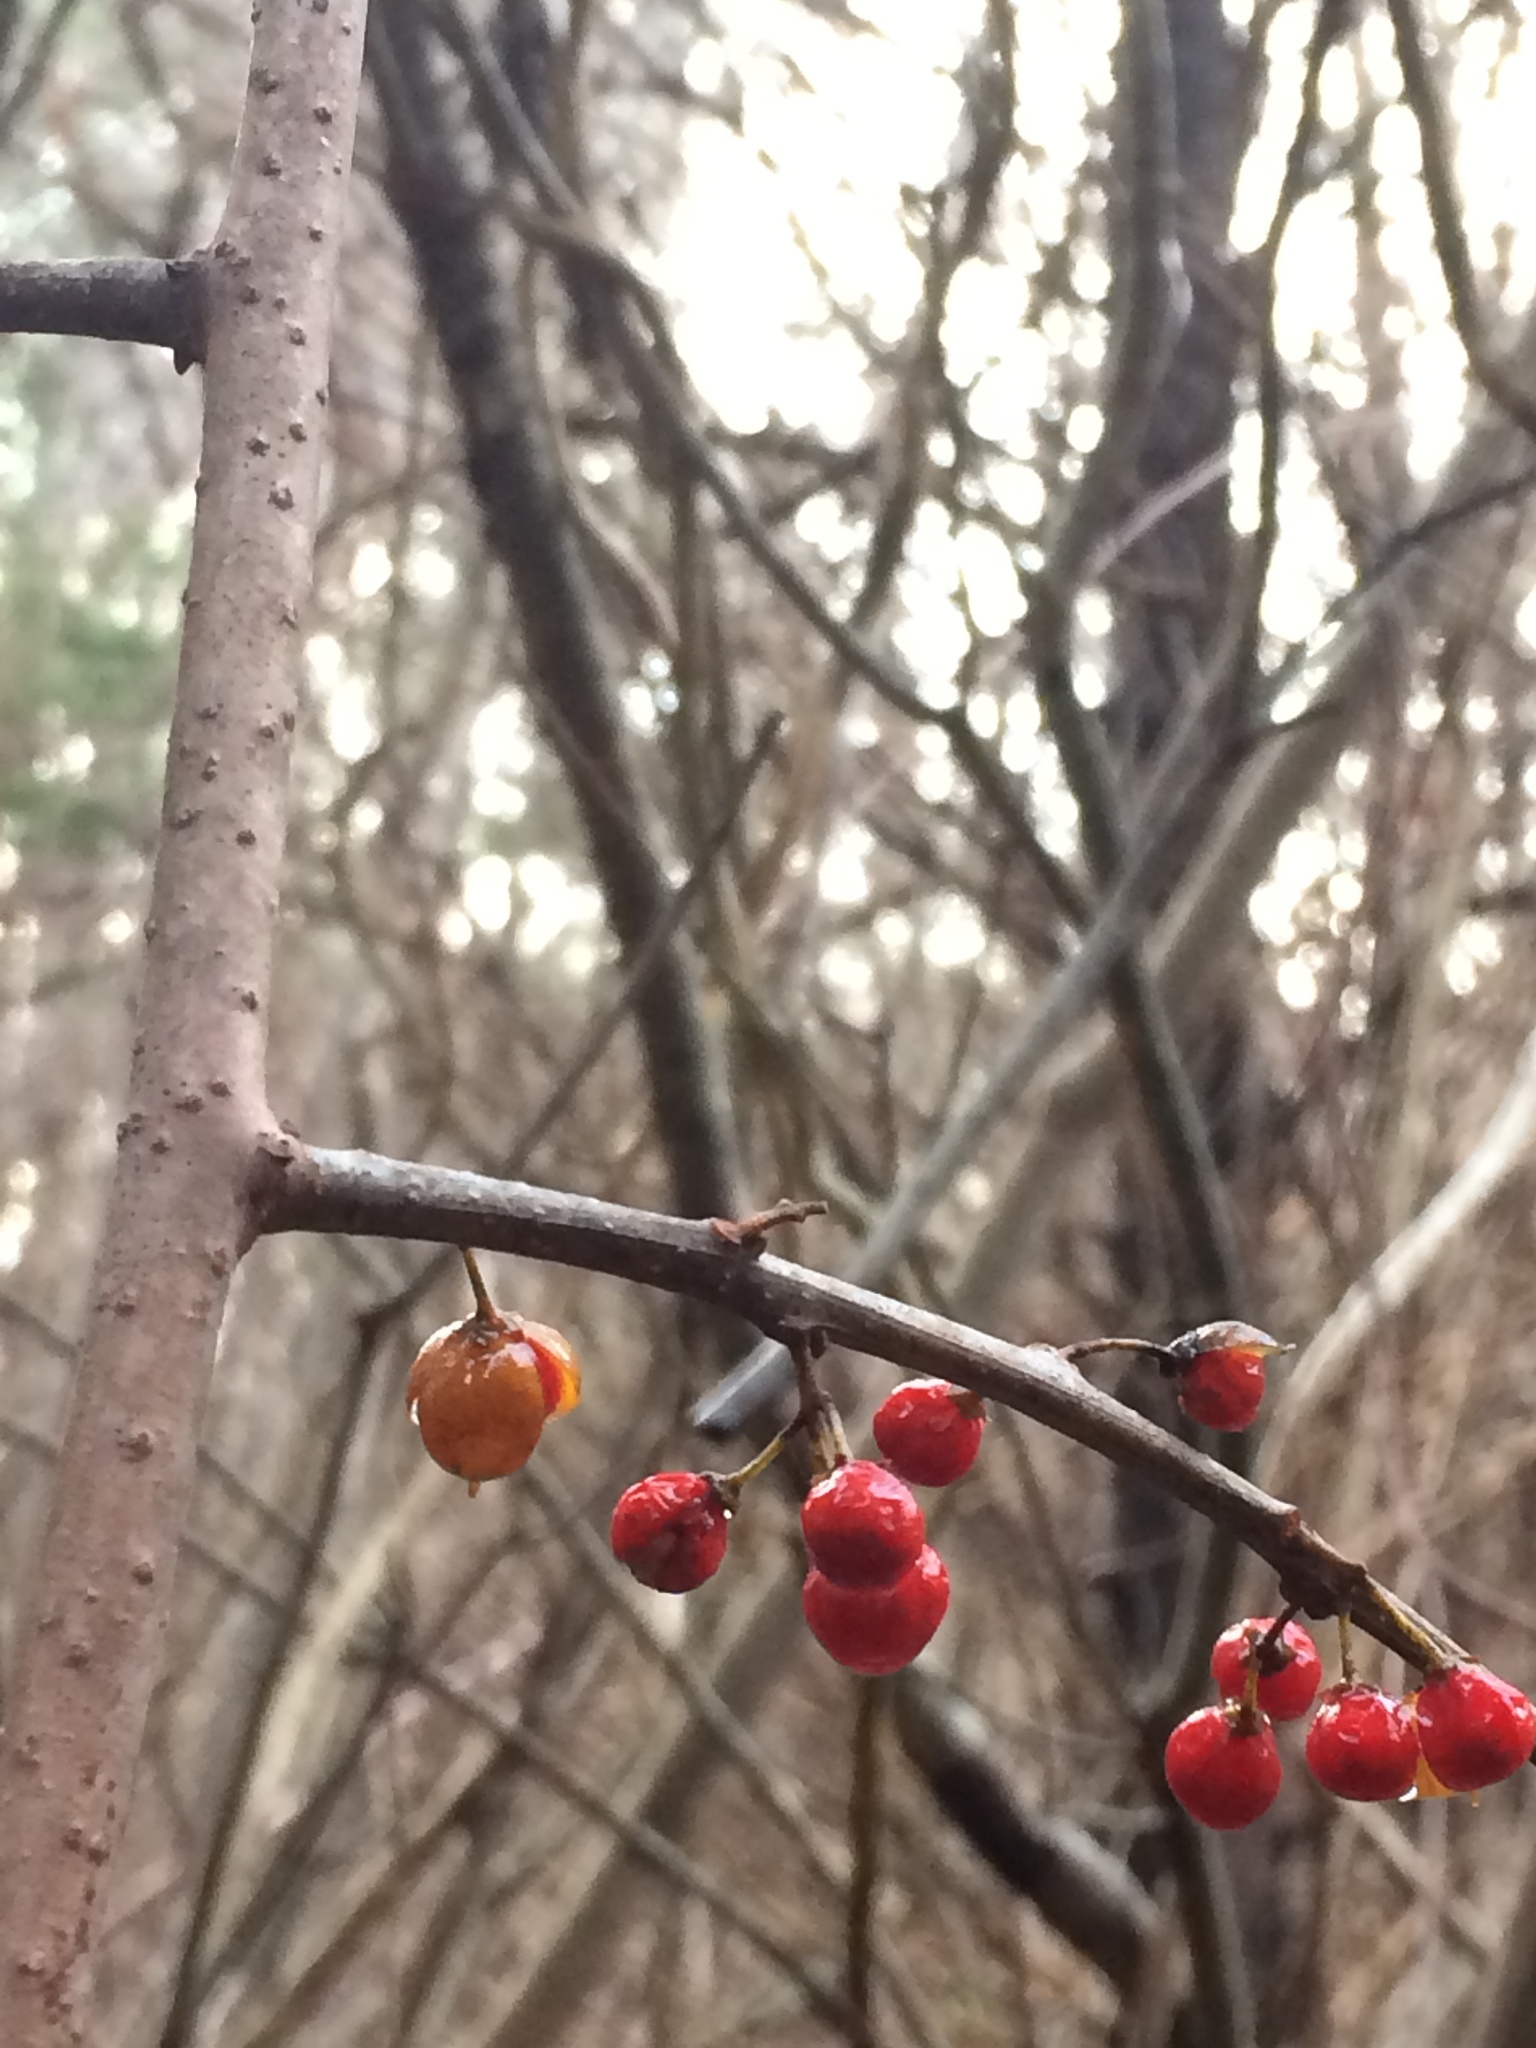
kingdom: Plantae
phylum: Tracheophyta
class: Magnoliopsida
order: Celastrales
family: Celastraceae
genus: Celastrus
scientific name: Celastrus orbiculatus
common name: Oriental bittersweet
